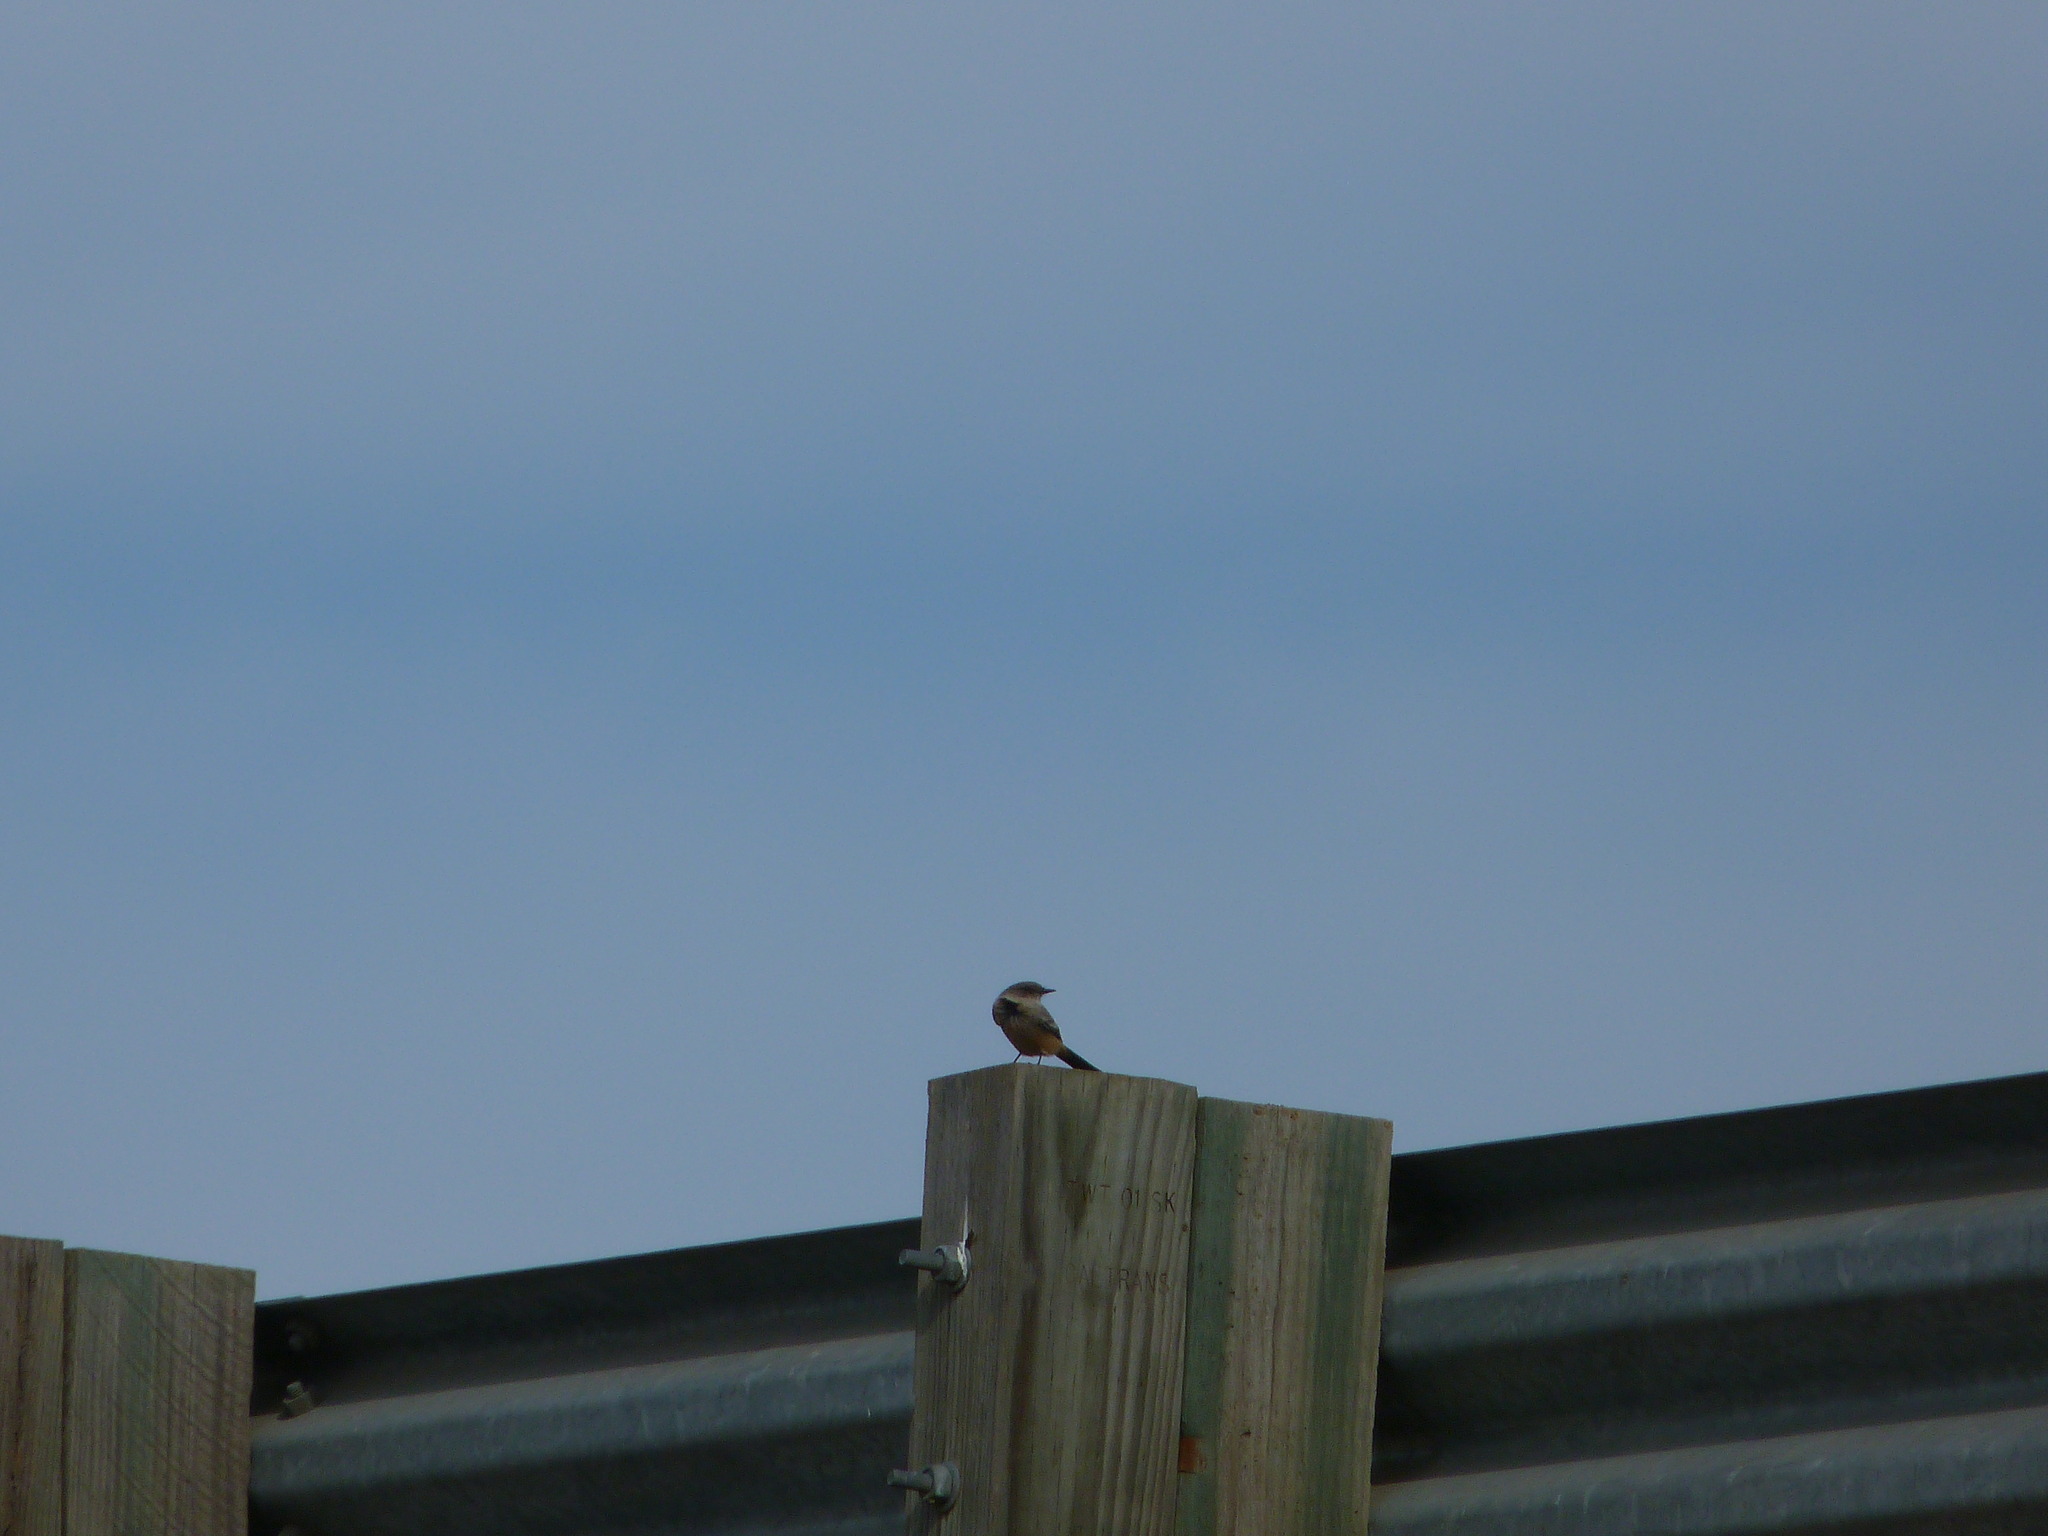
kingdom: Animalia
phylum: Chordata
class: Aves
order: Passeriformes
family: Tyrannidae
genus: Sayornis
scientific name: Sayornis saya
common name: Say's phoebe
